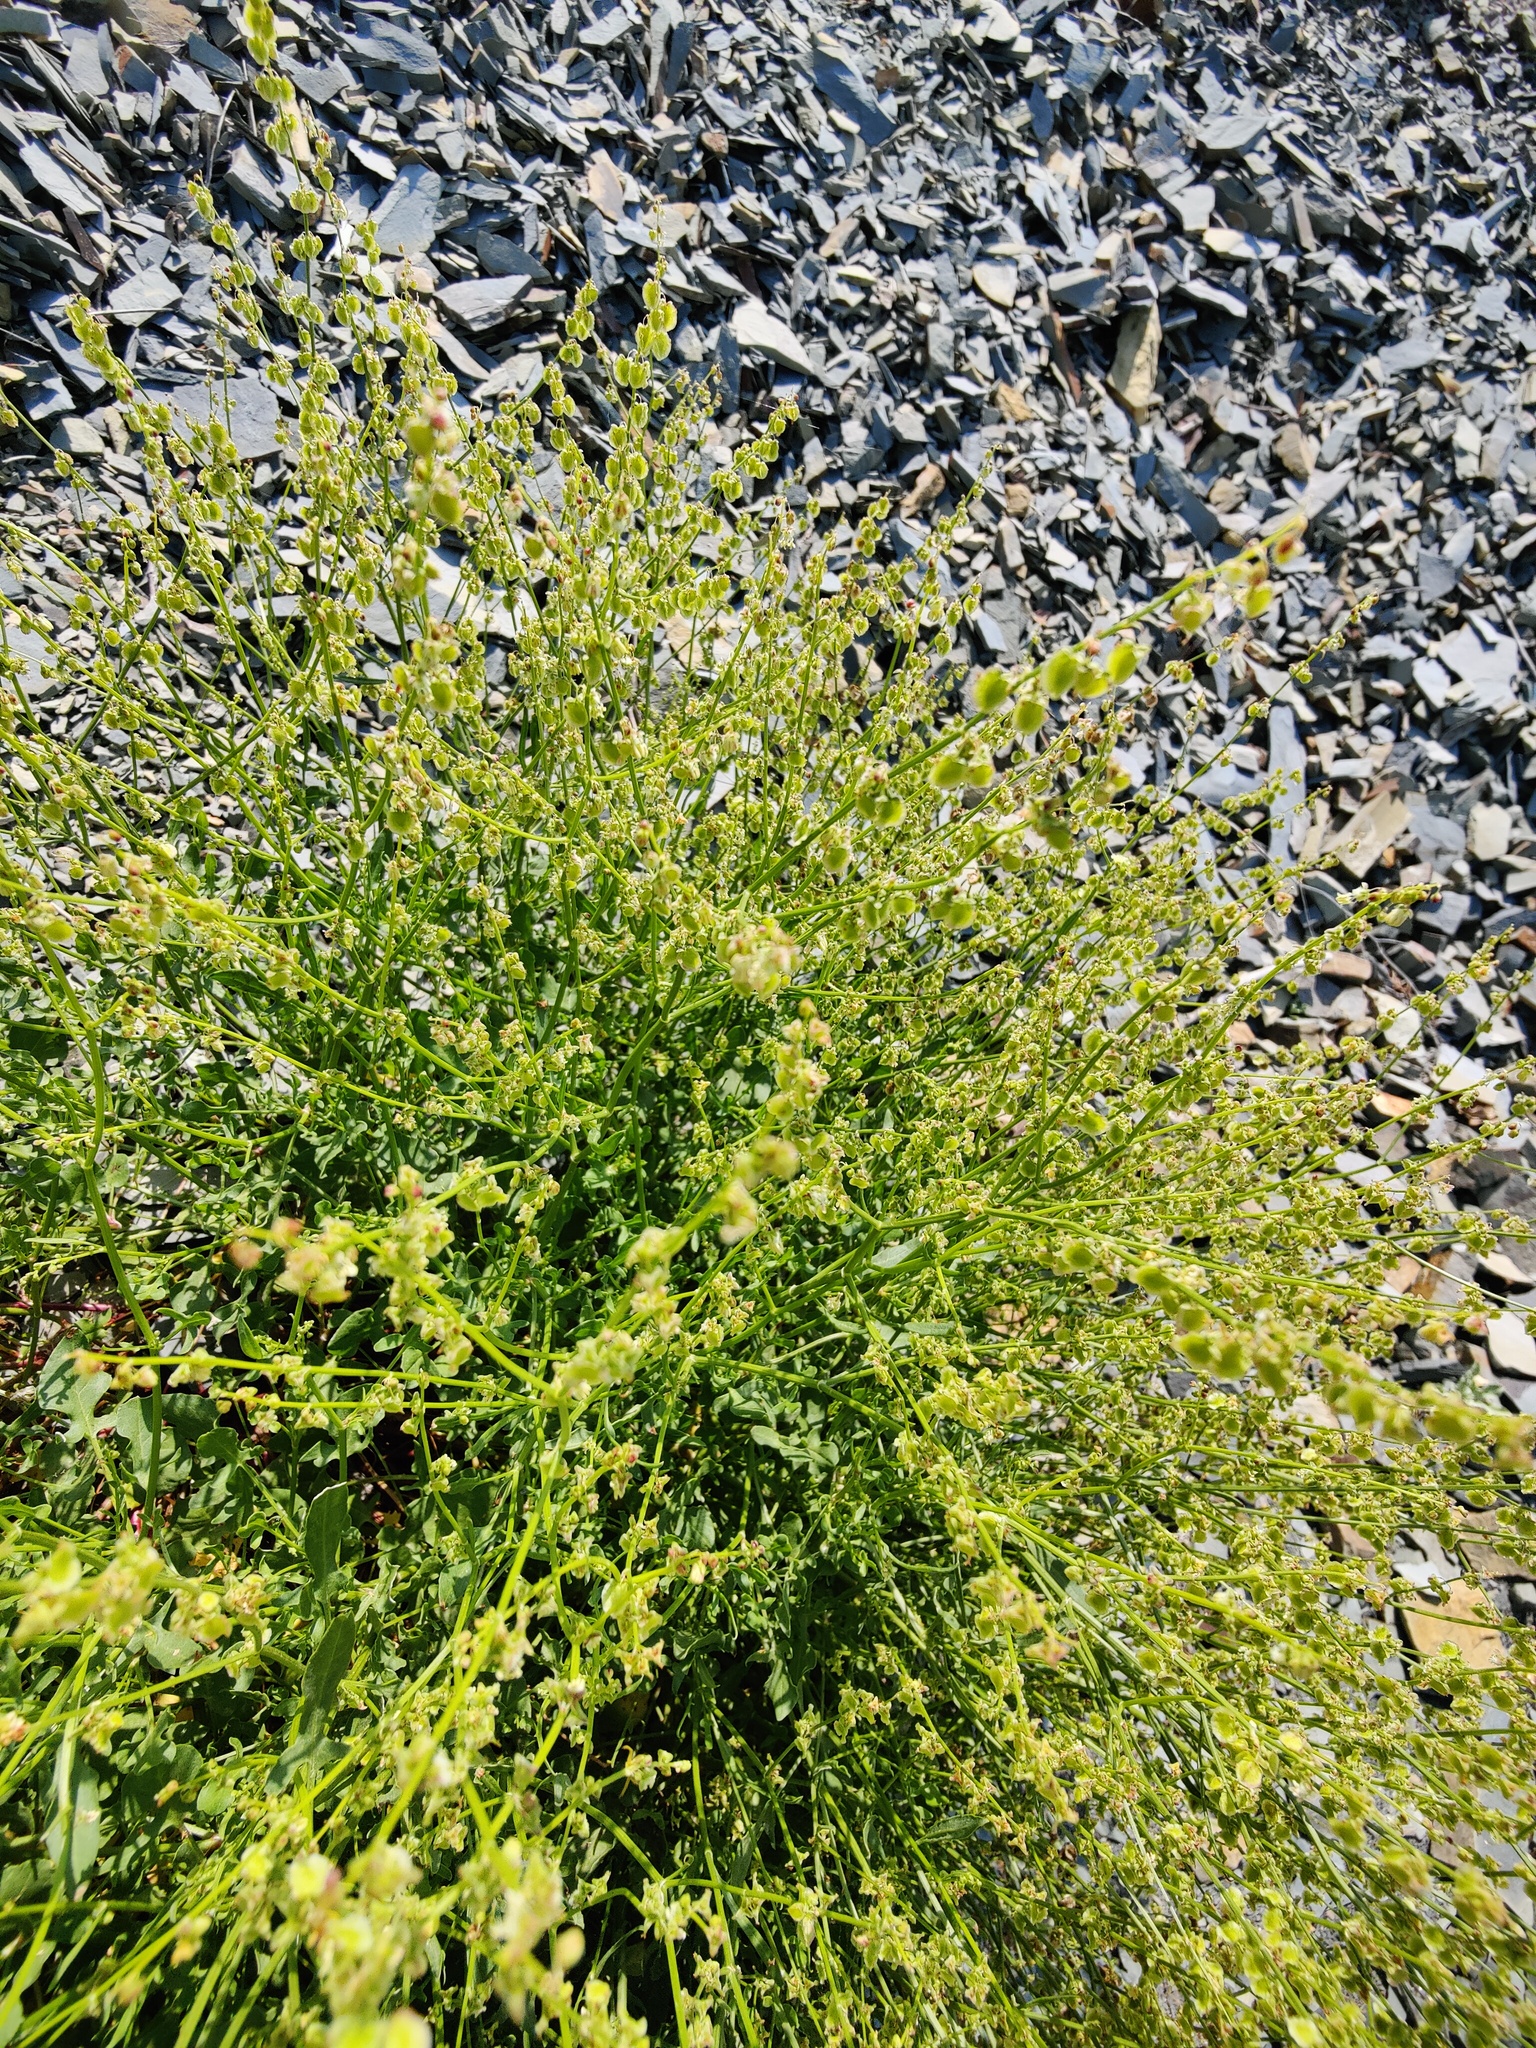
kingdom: Plantae
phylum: Tracheophyta
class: Magnoliopsida
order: Caryophyllales
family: Polygonaceae
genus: Rumex
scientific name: Rumex scutatus
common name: French sorrel
